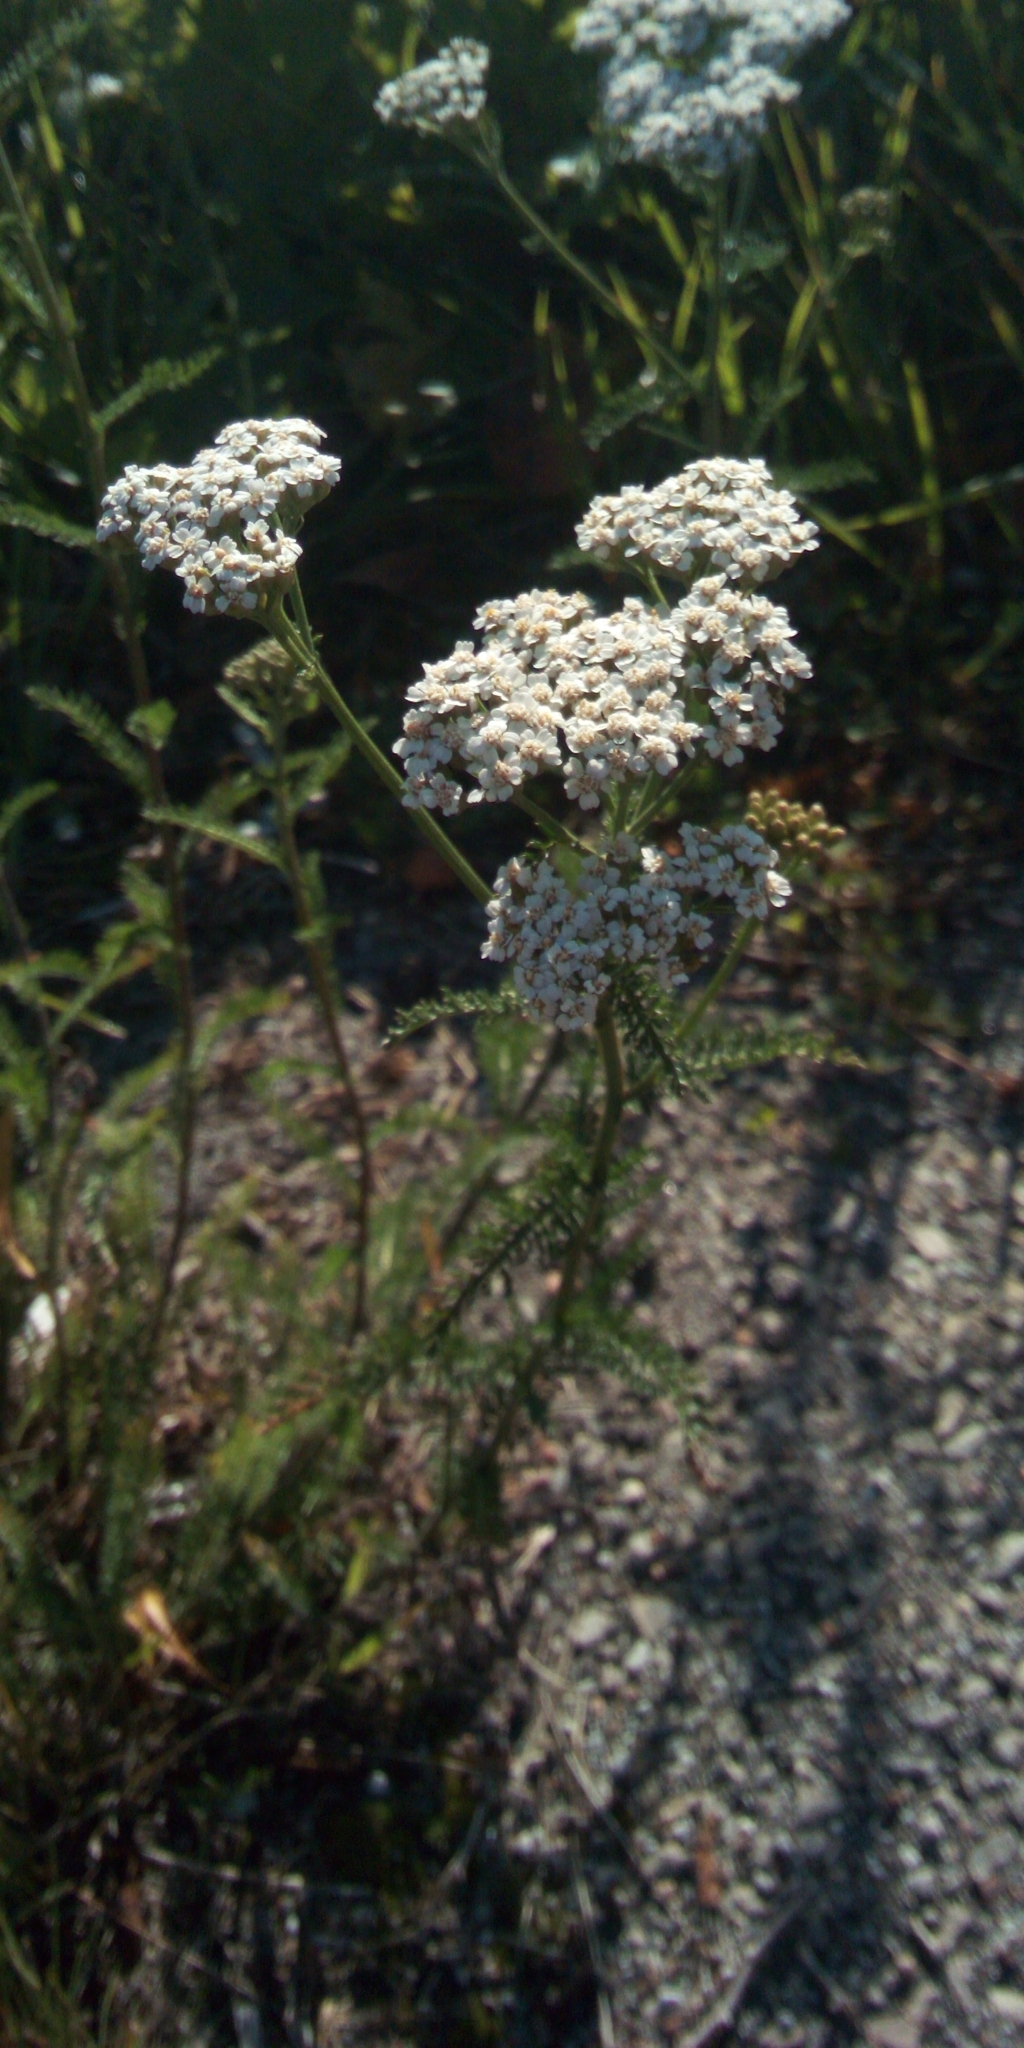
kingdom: Plantae
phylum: Tracheophyta
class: Magnoliopsida
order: Asterales
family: Asteraceae
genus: Achillea
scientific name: Achillea millefolium
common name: Yarrow
